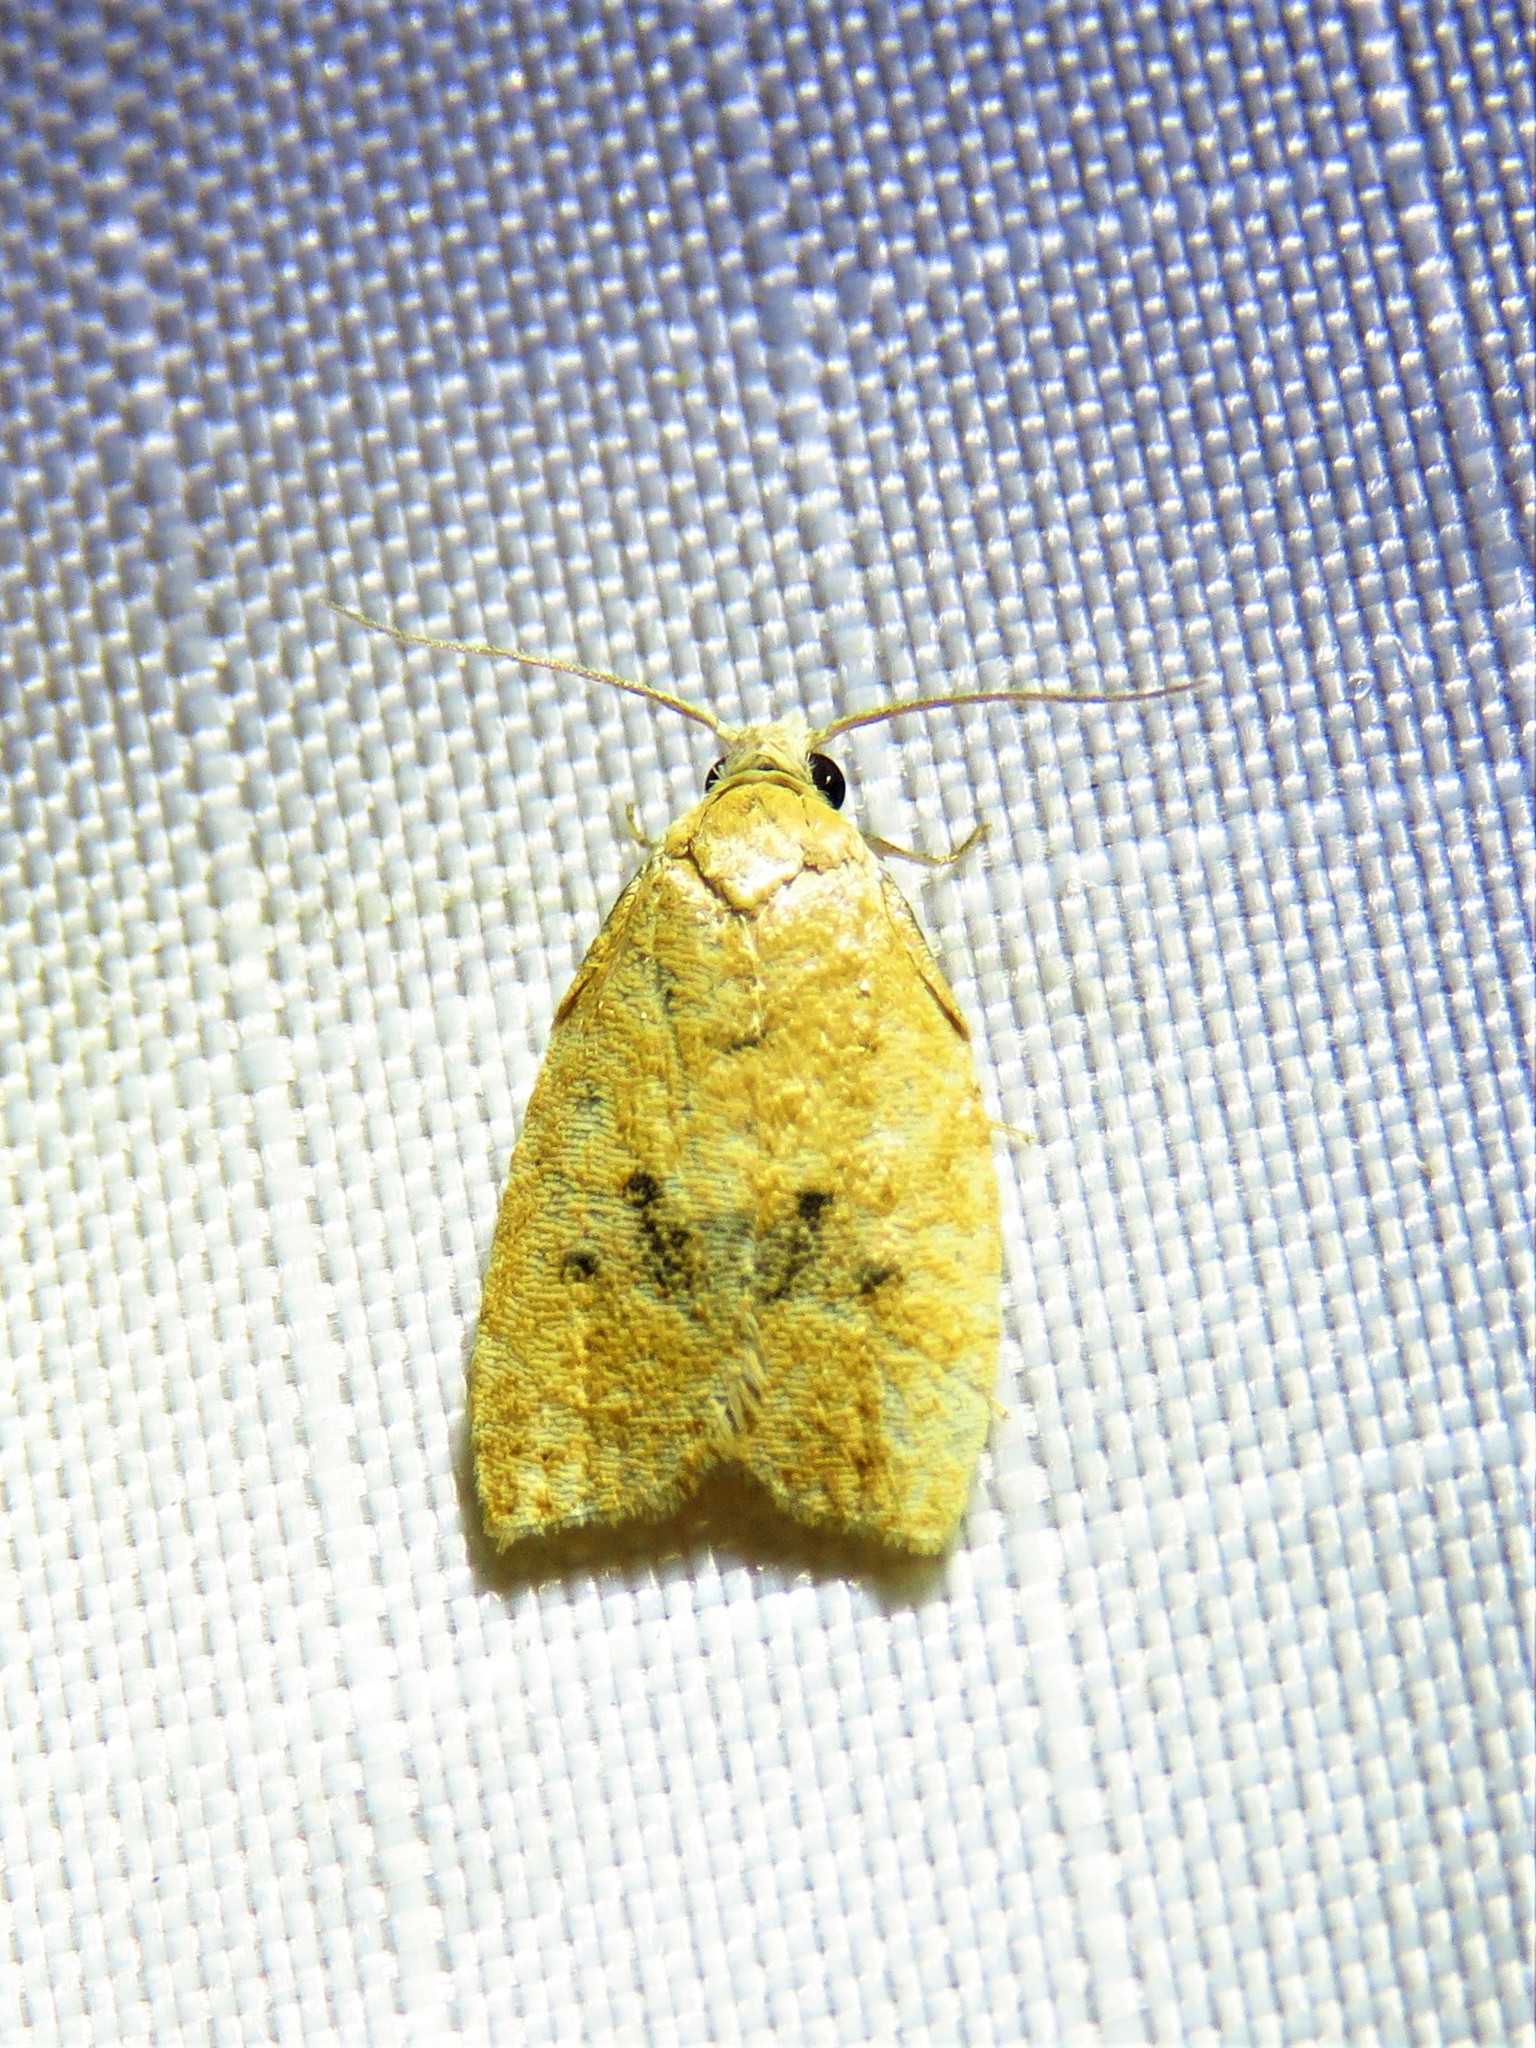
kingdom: Animalia
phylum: Arthropoda
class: Insecta
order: Lepidoptera
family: Tortricidae
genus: Sparganothoides
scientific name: Sparganothoides lentiginosana
